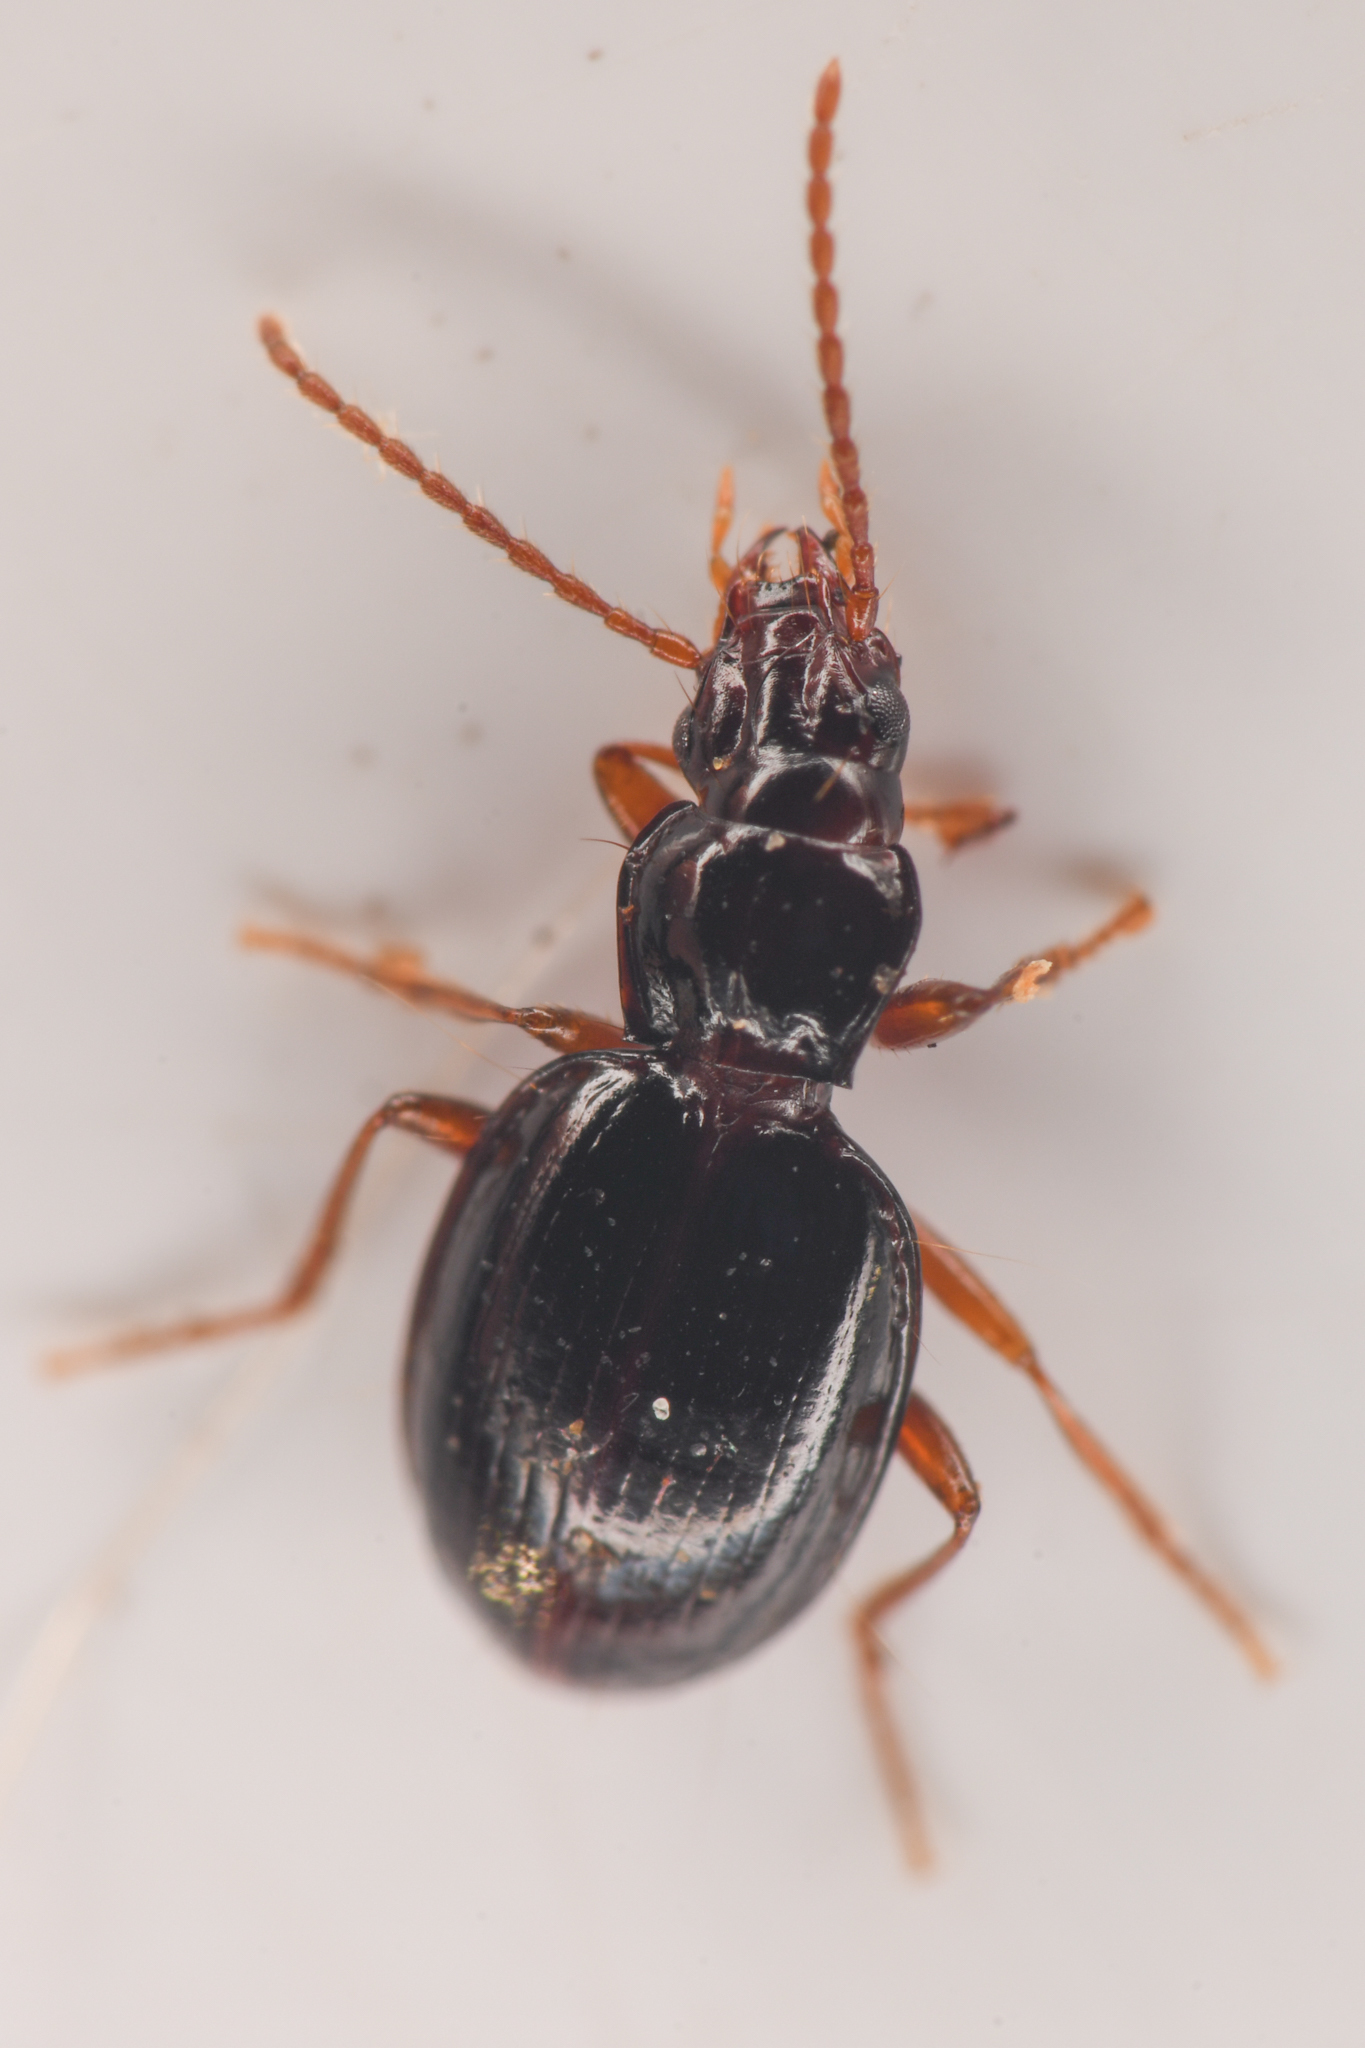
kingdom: Animalia
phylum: Arthropoda
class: Insecta
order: Coleoptera
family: Carabidae
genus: Trechus
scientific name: Trechus ovipennis
